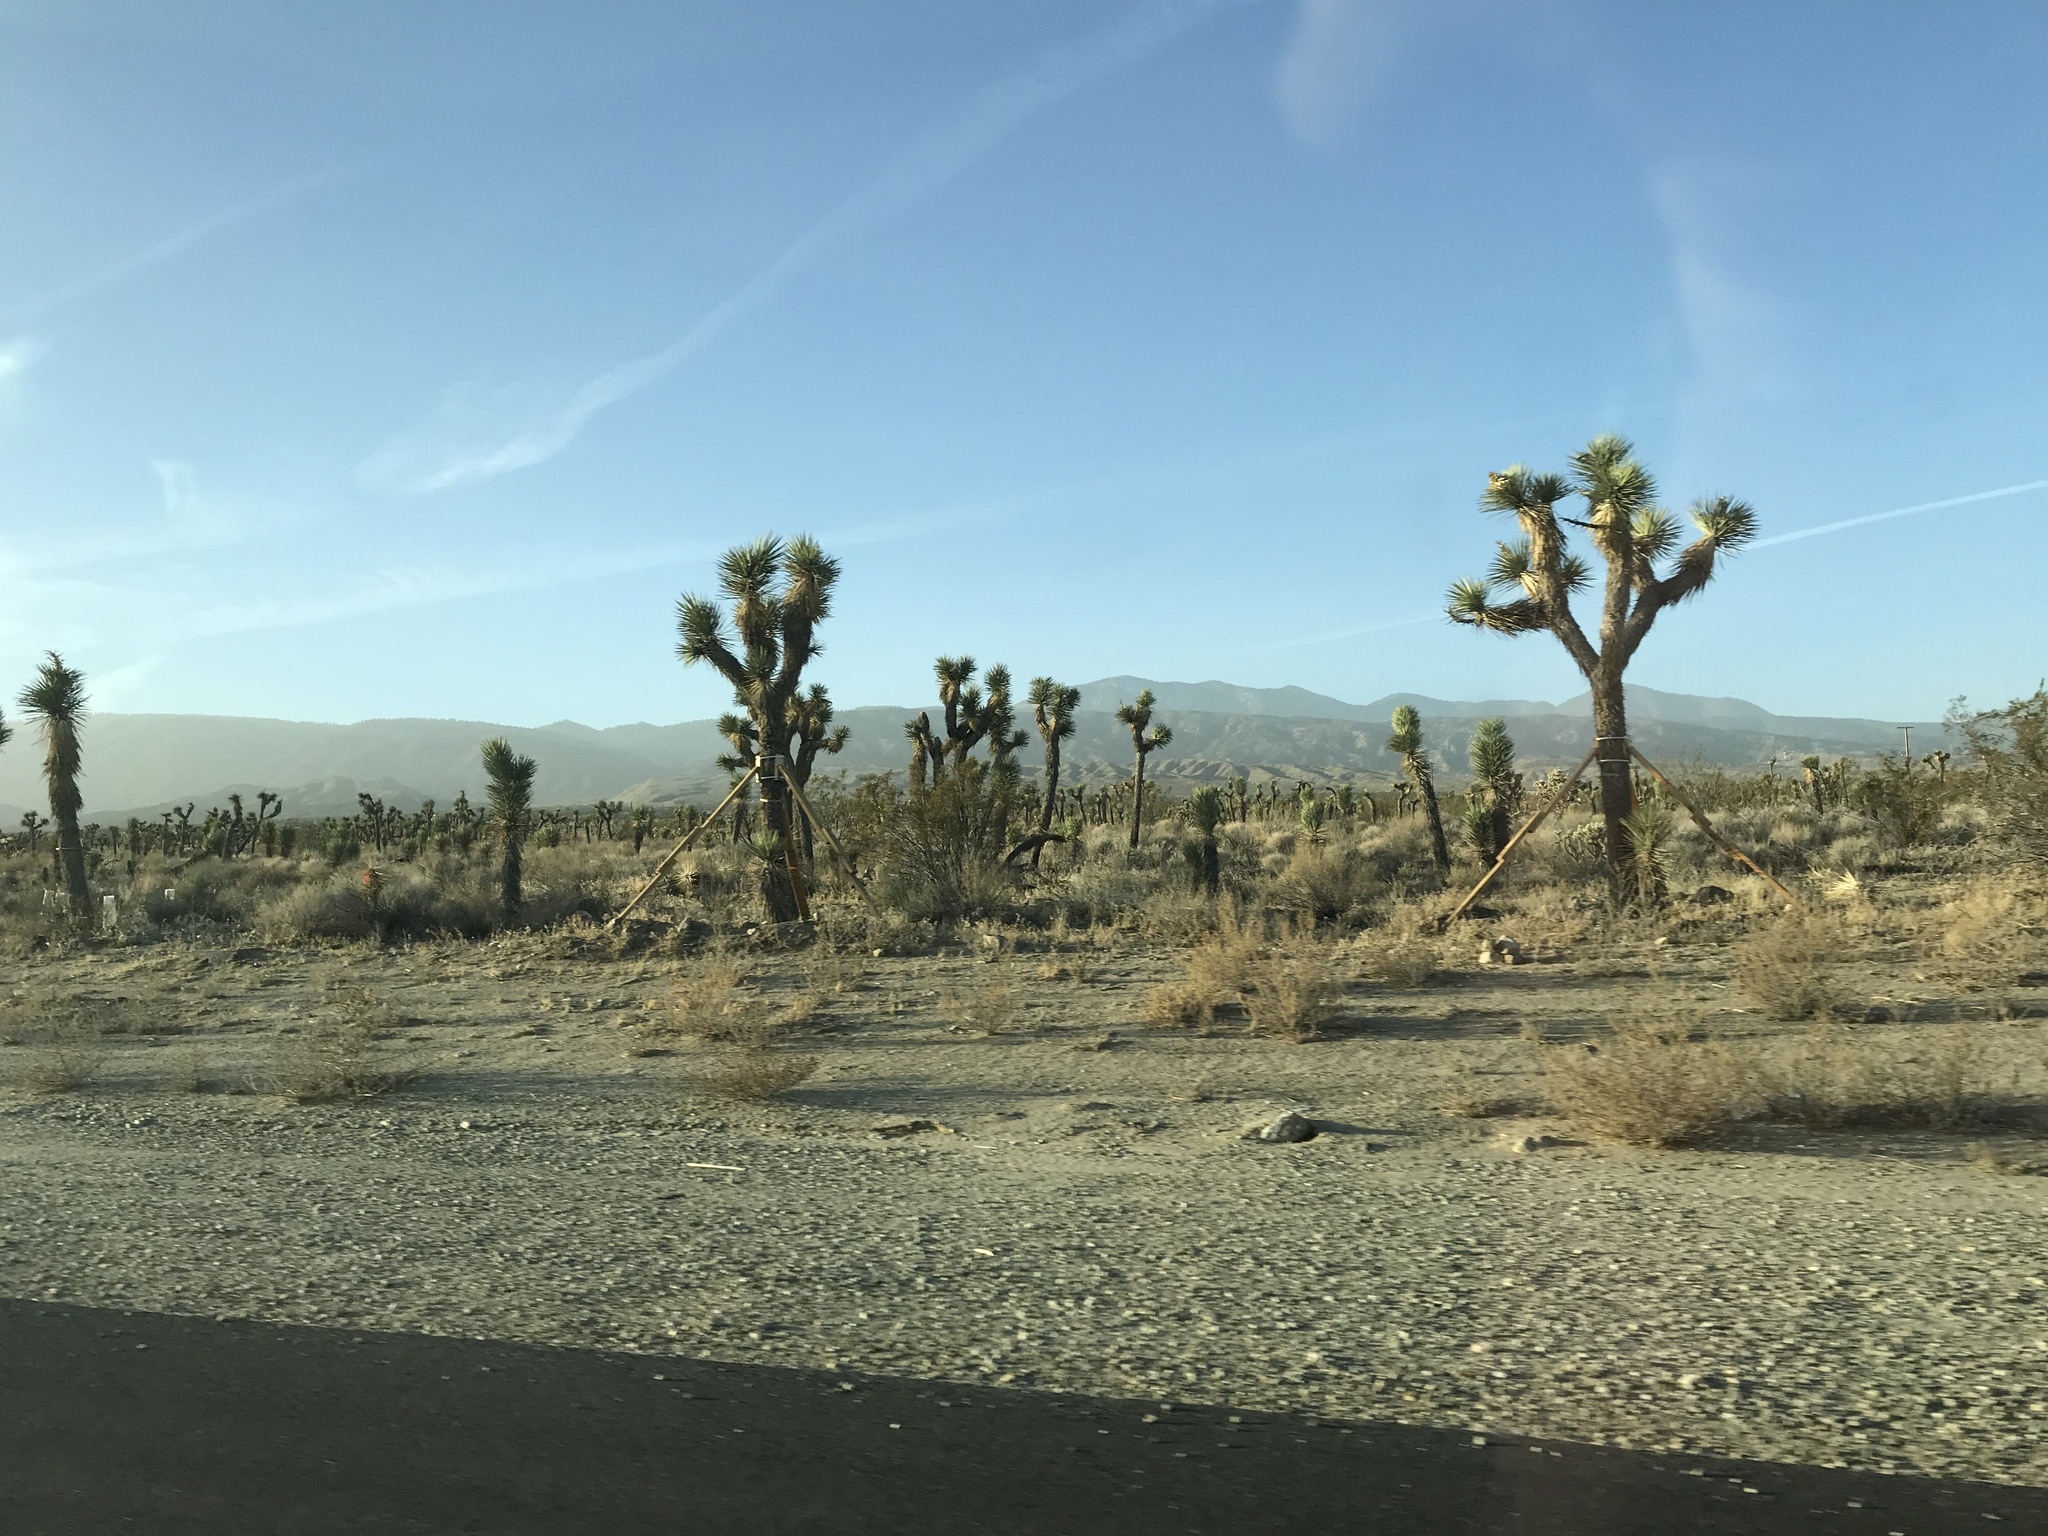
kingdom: Plantae
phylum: Tracheophyta
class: Liliopsida
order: Asparagales
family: Asparagaceae
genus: Yucca
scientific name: Yucca brevifolia
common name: Joshua tree
